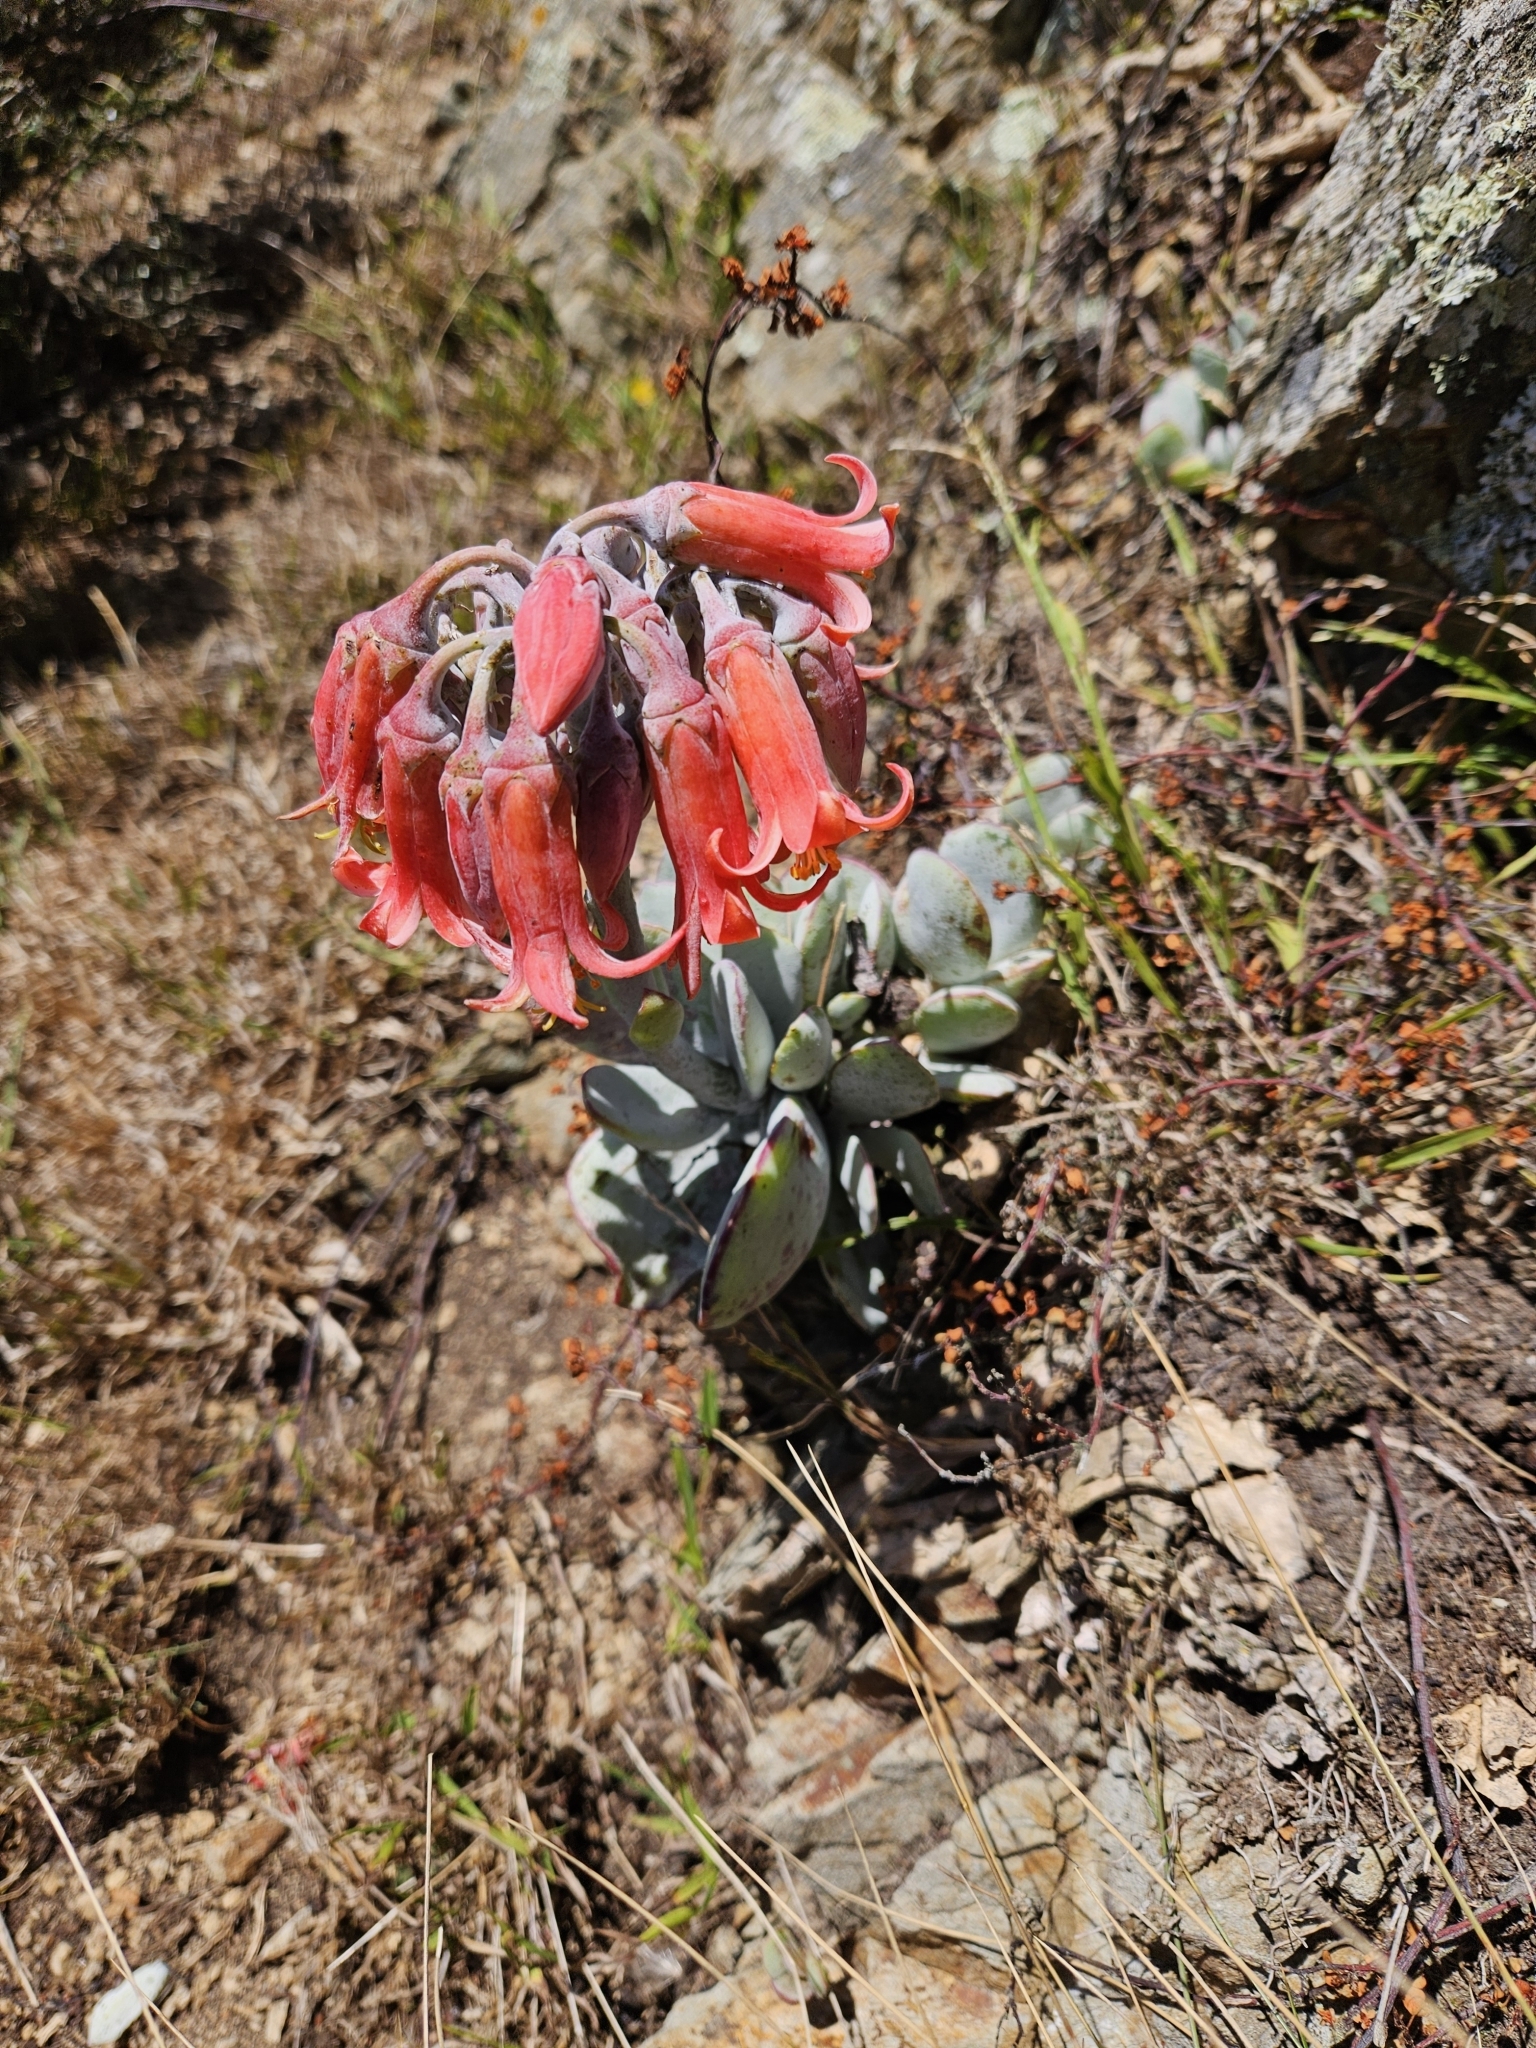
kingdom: Plantae
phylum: Tracheophyta
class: Magnoliopsida
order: Saxifragales
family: Crassulaceae
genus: Cotyledon
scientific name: Cotyledon orbiculata
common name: Pig's ear
